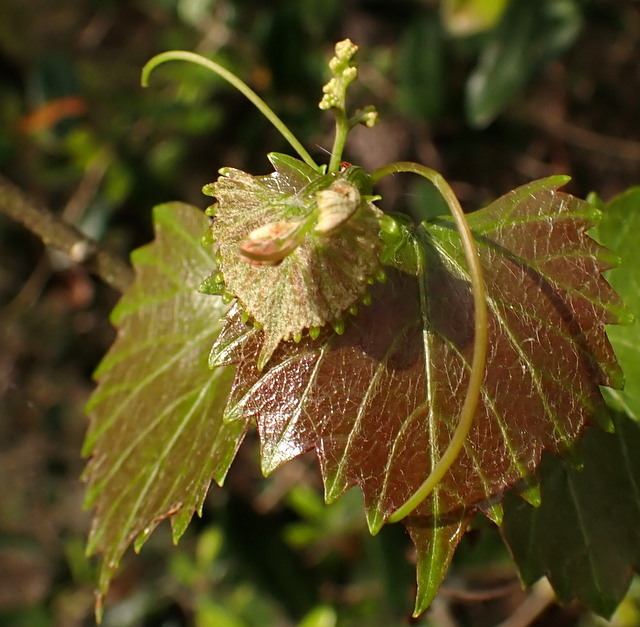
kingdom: Plantae
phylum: Tracheophyta
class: Magnoliopsida
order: Vitales
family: Vitaceae
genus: Vitis
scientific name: Vitis rotundifolia
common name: Muscadine grape
